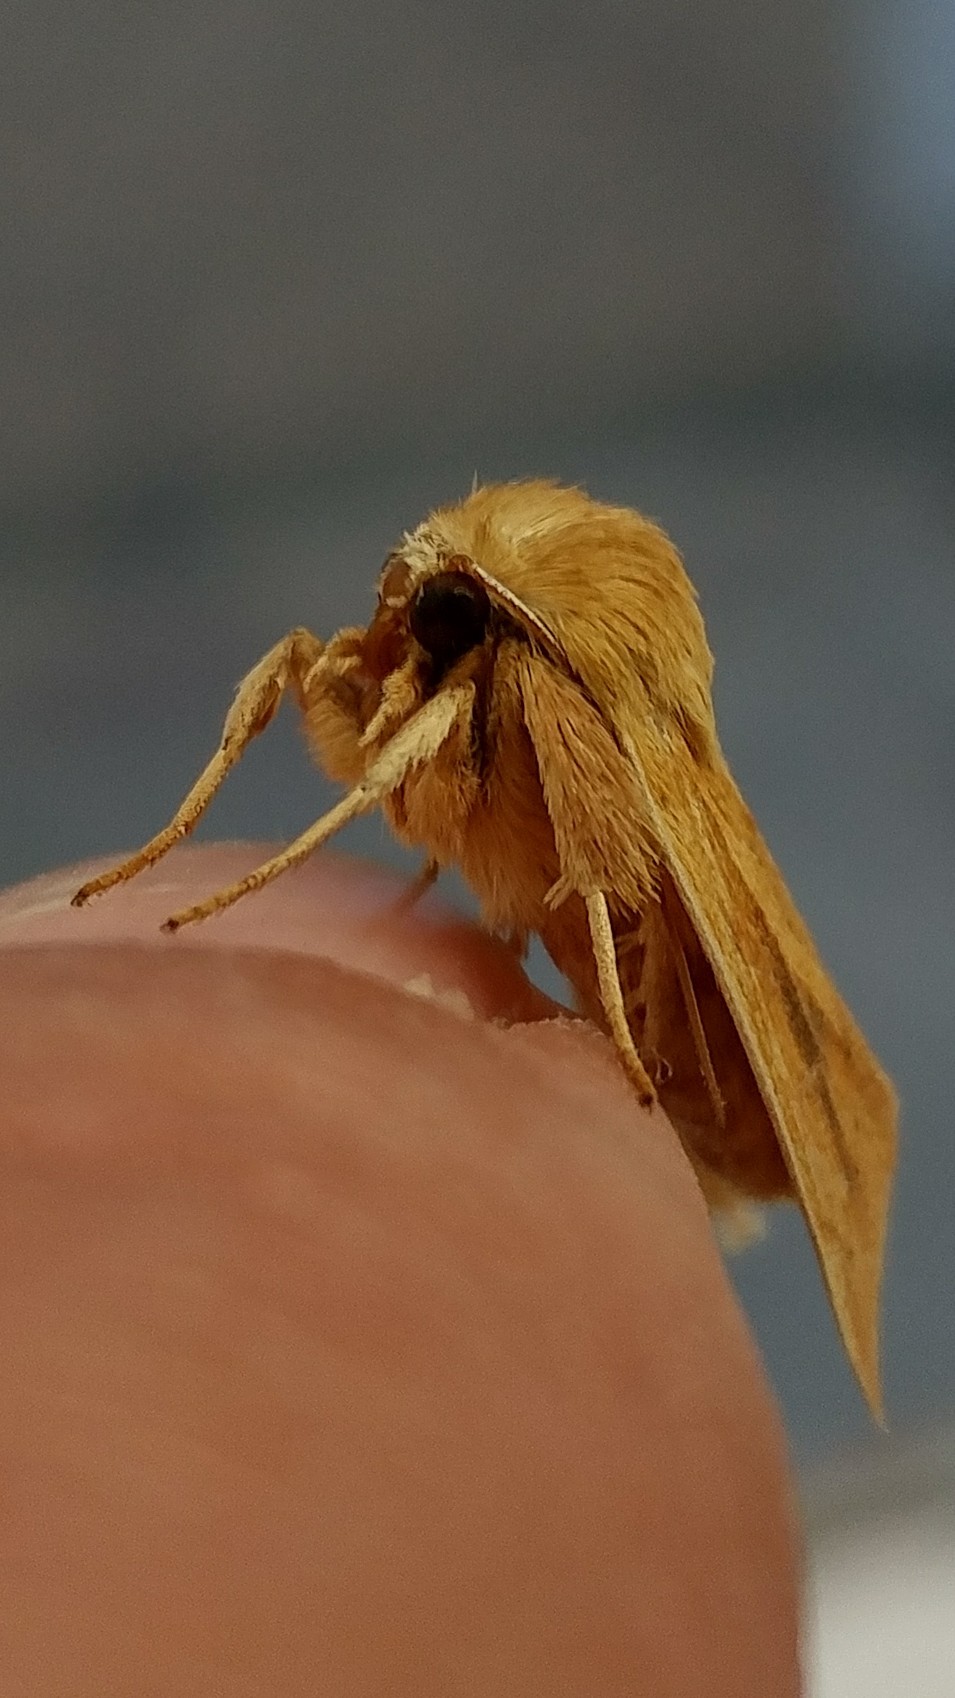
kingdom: Animalia
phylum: Arthropoda
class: Insecta
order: Lepidoptera
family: Noctuidae
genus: Zosteropoda
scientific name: Zosteropoda clementei
